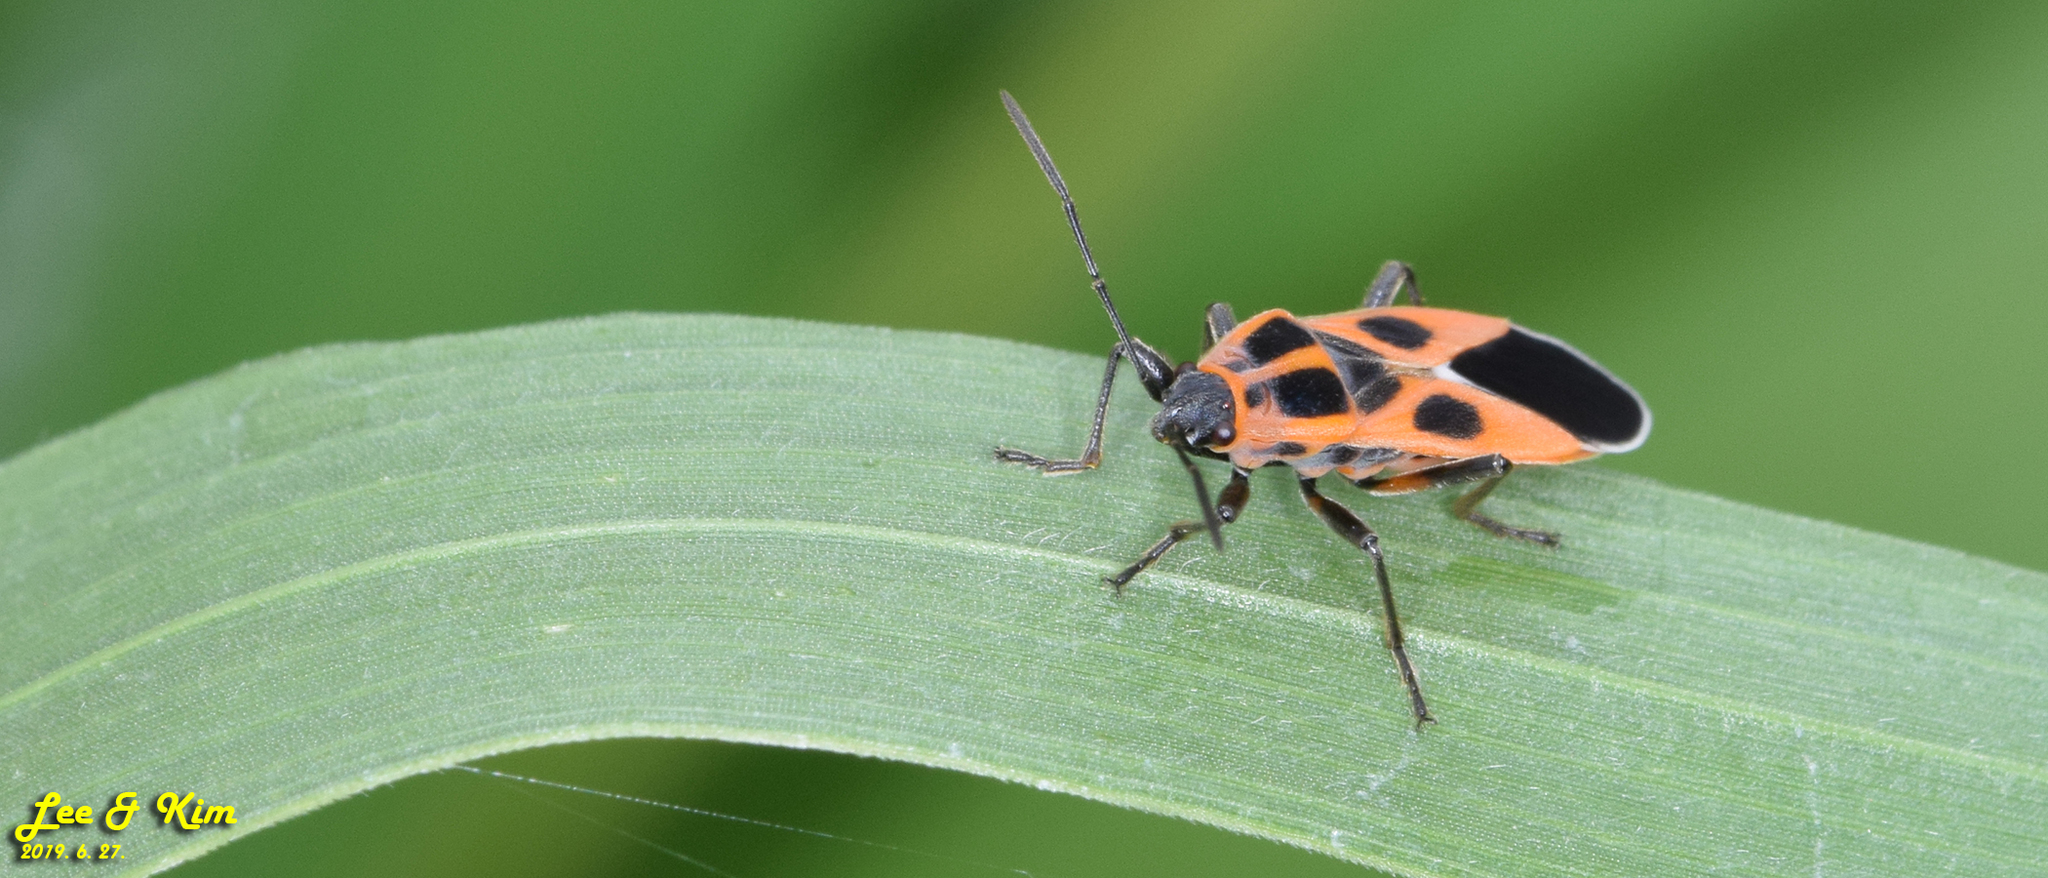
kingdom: Animalia
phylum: Arthropoda
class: Insecta
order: Hemiptera
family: Lygaeidae
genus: Tropidothorax
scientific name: Tropidothorax cruciger
